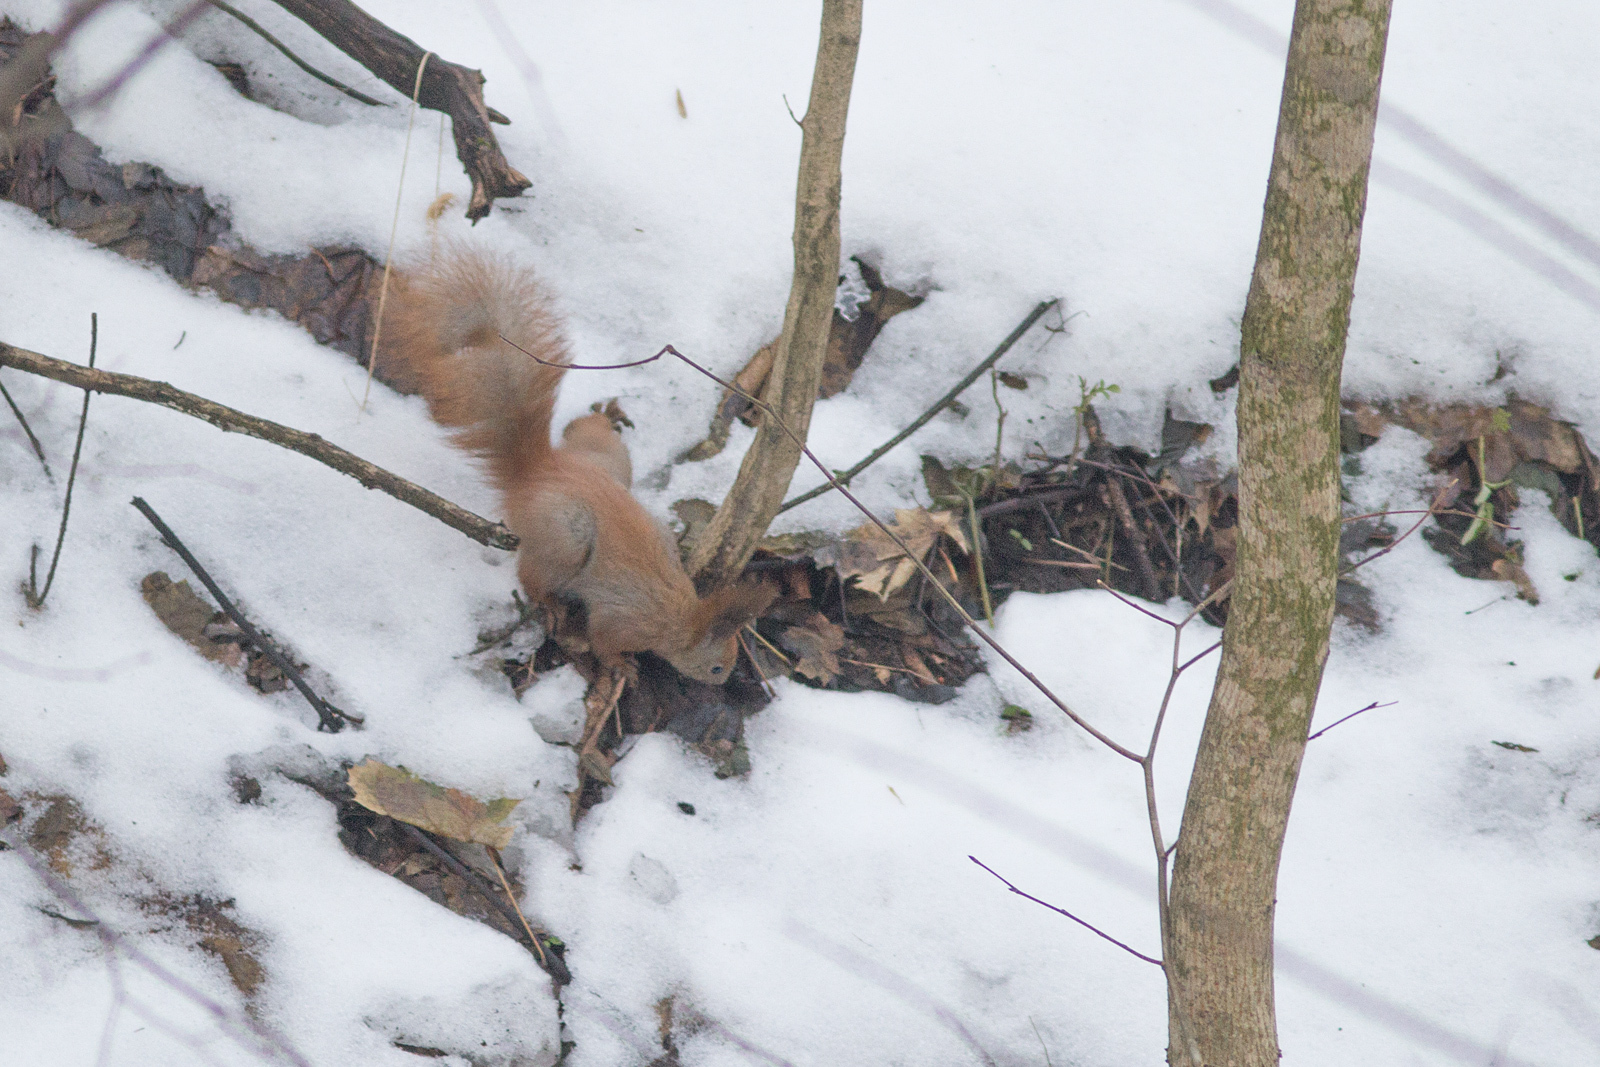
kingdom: Animalia
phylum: Chordata
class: Mammalia
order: Rodentia
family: Sciuridae
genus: Sciurus
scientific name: Sciurus vulgaris
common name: Eurasian red squirrel
